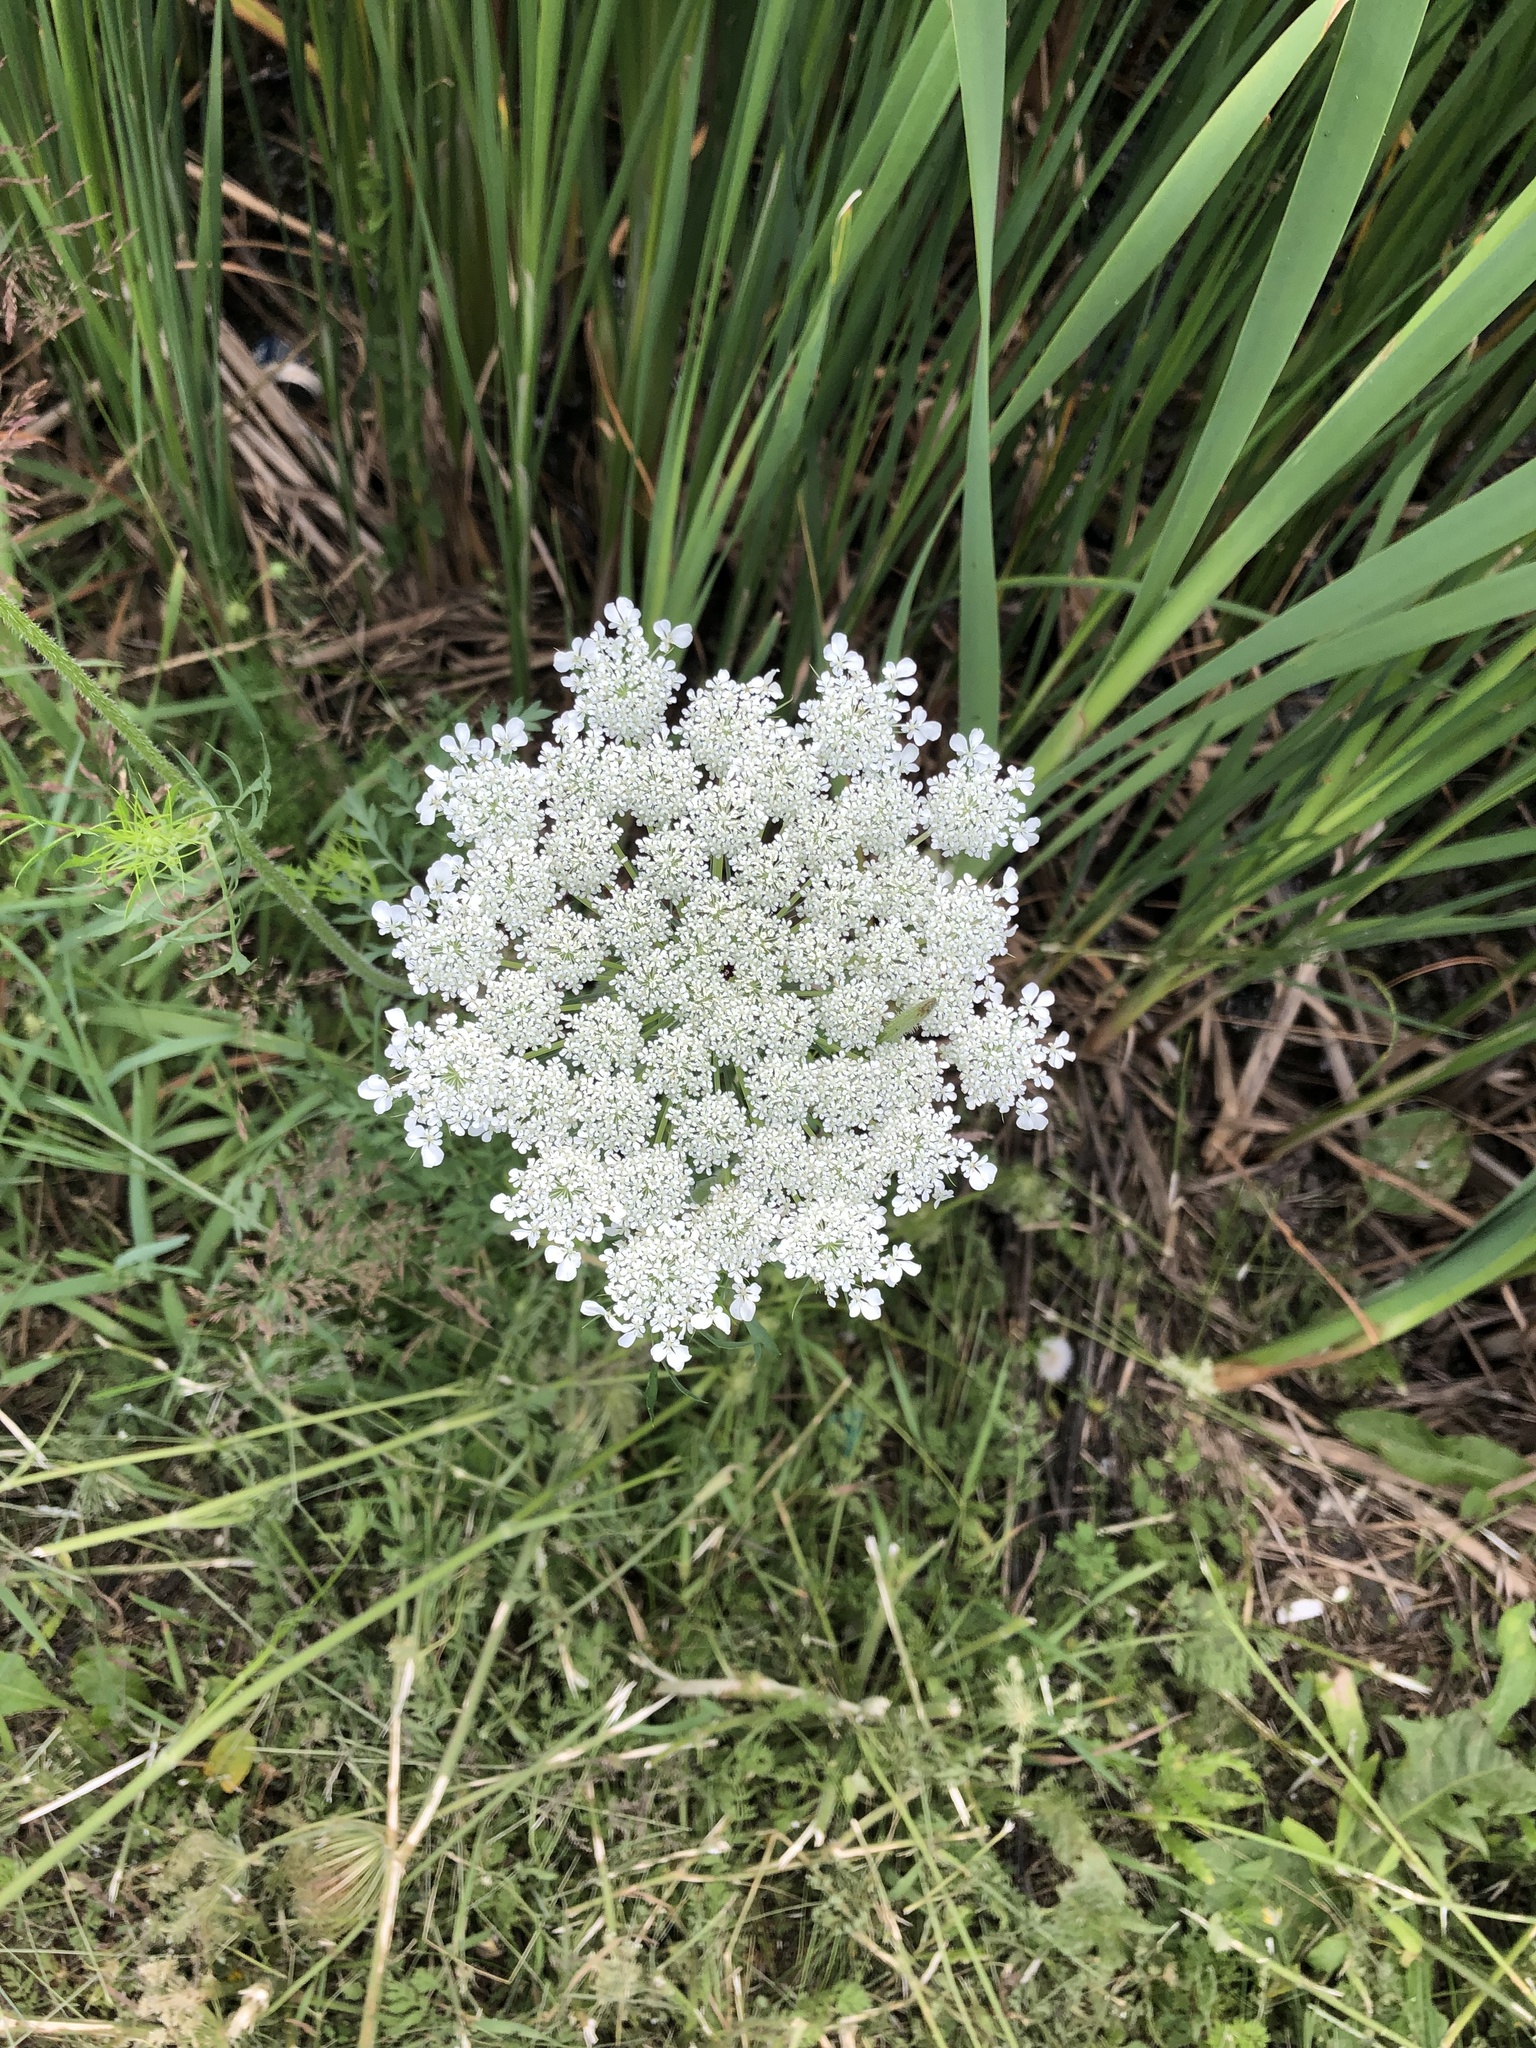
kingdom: Plantae
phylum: Tracheophyta
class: Magnoliopsida
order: Apiales
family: Apiaceae
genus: Daucus
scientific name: Daucus carota
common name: Wild carrot
